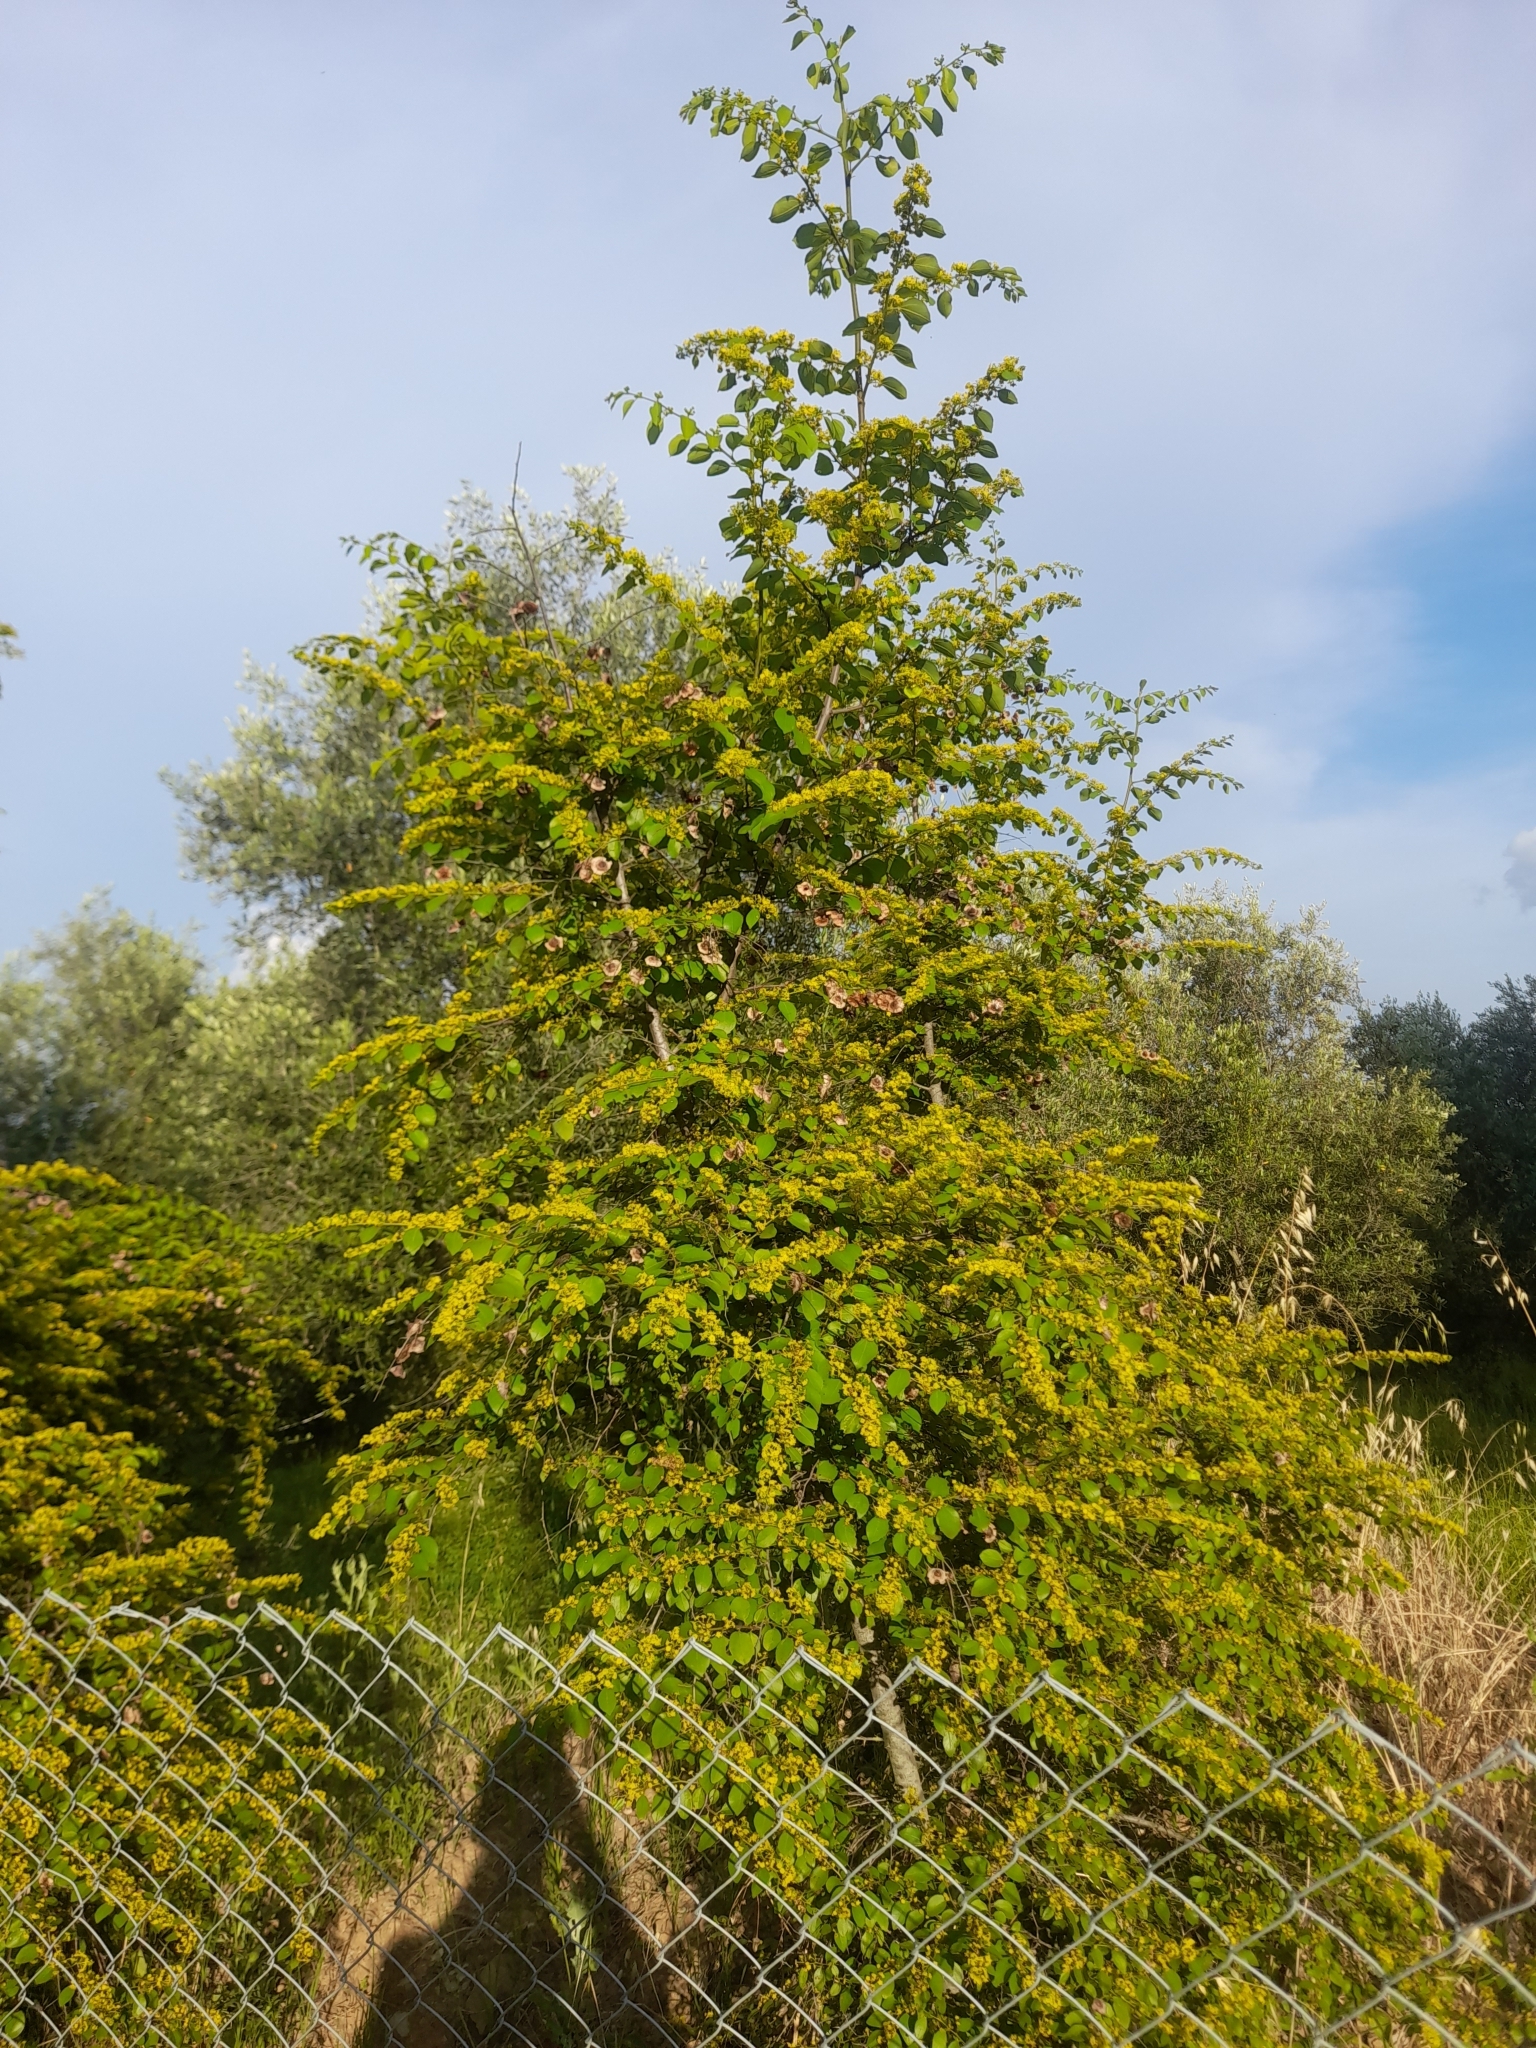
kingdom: Plantae
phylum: Tracheophyta
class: Magnoliopsida
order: Rosales
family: Rhamnaceae
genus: Paliurus
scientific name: Paliurus spina-christi
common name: Jeruselem thorn
